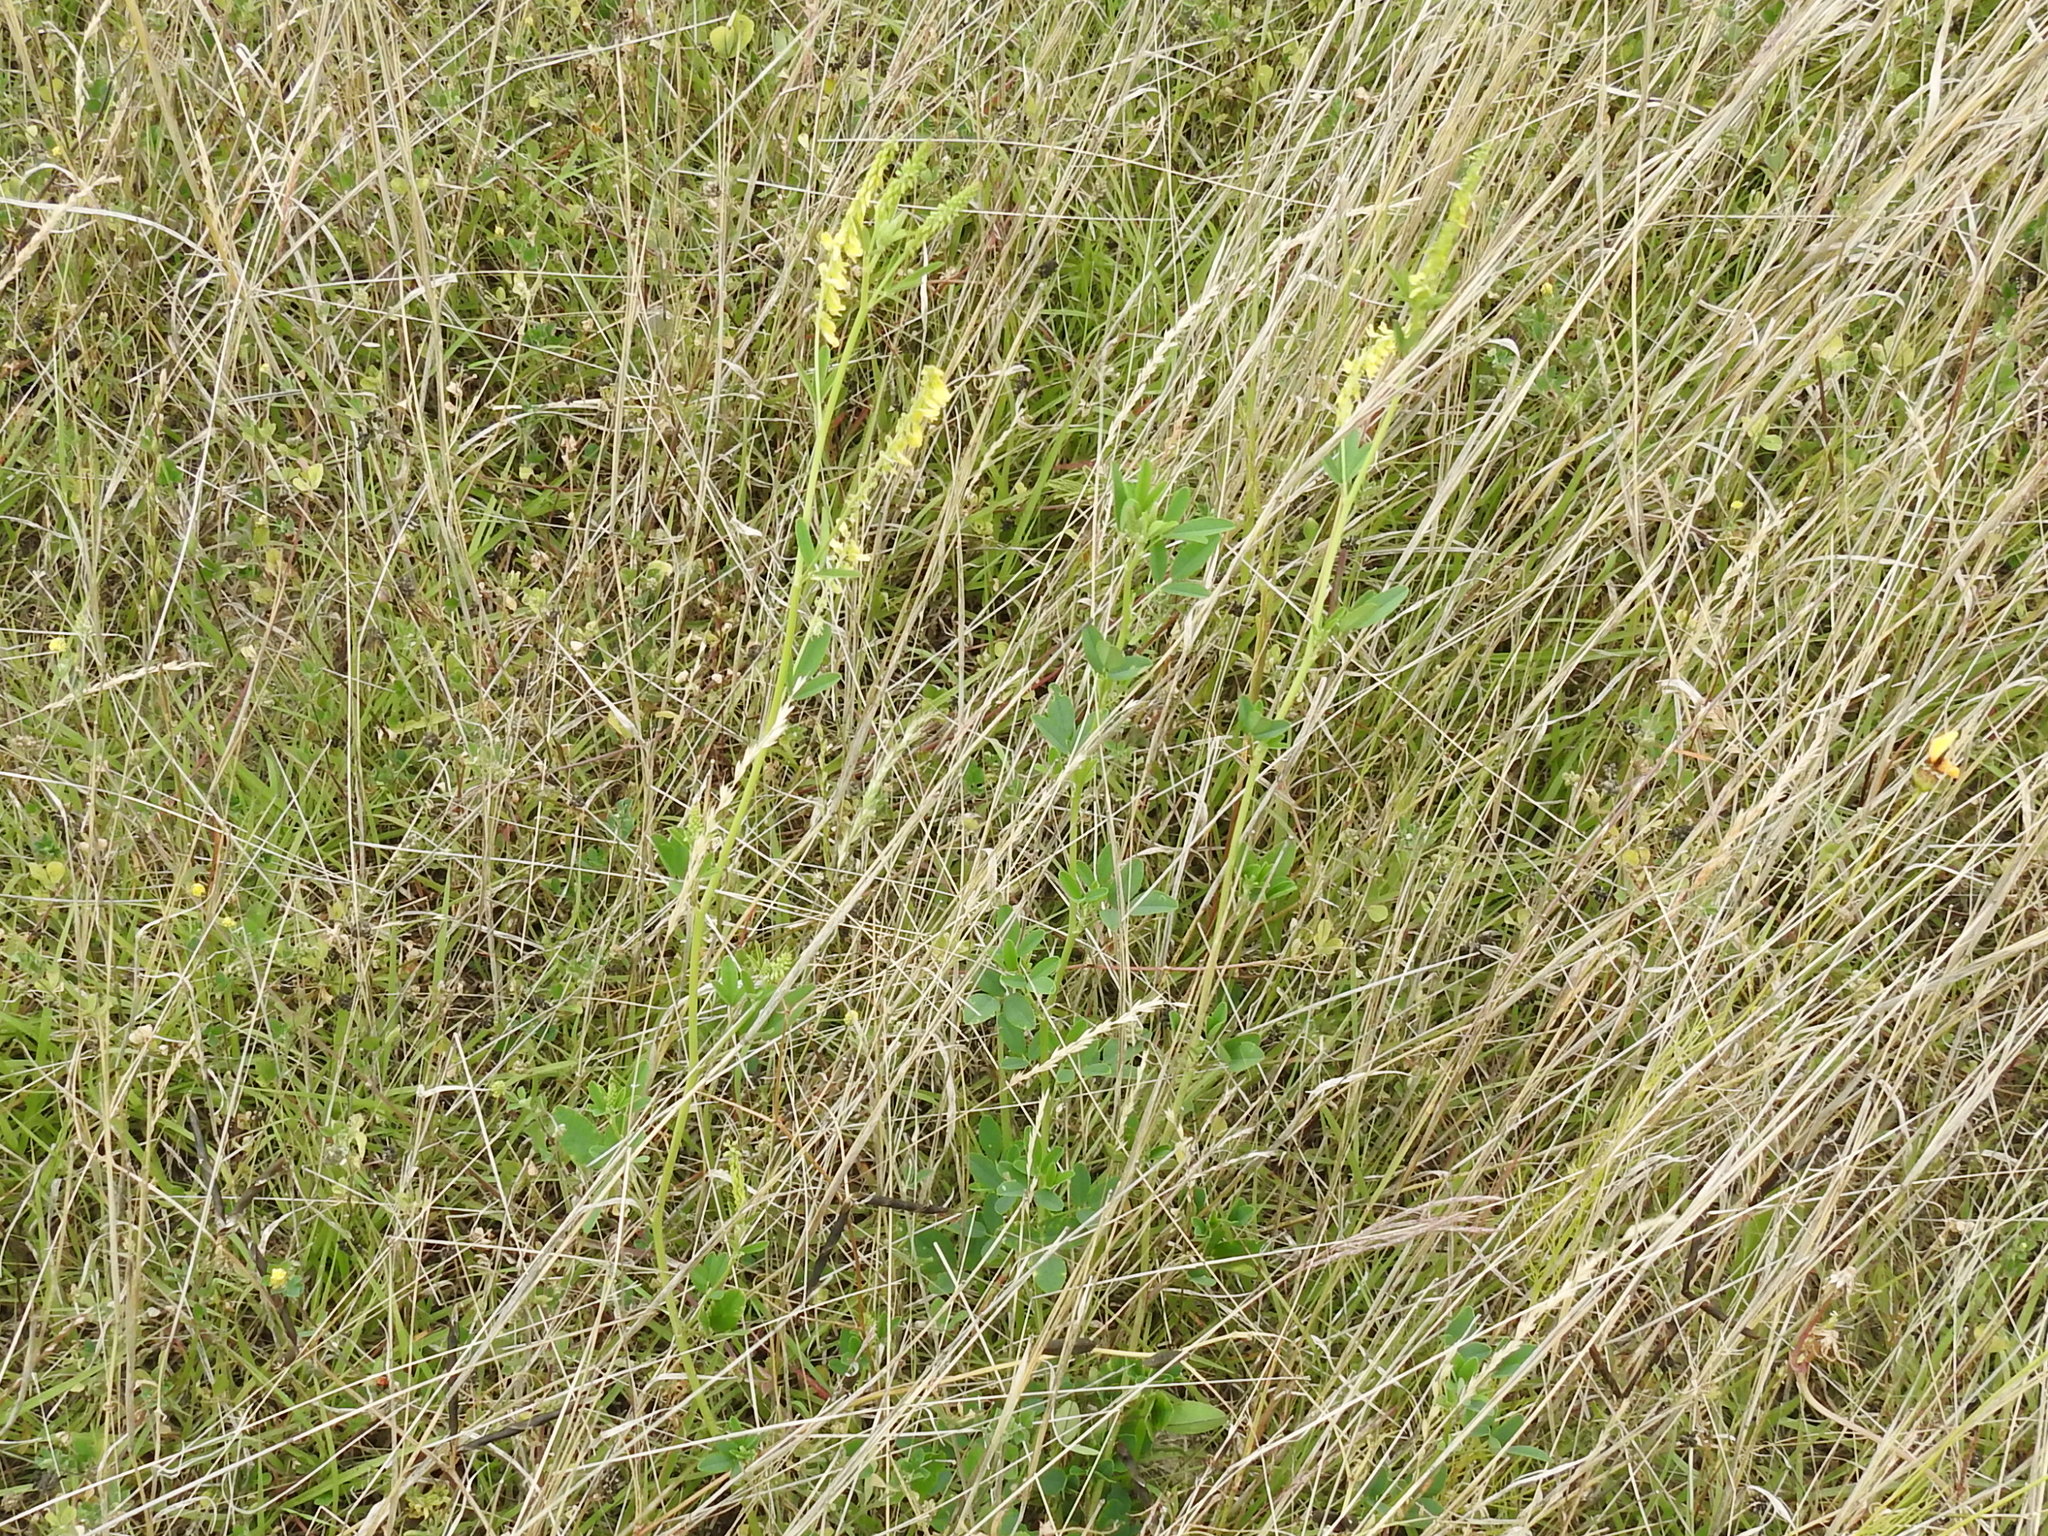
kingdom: Plantae
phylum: Tracheophyta
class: Magnoliopsida
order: Fabales
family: Fabaceae
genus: Melilotus
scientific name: Melilotus officinalis
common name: Sweetclover
